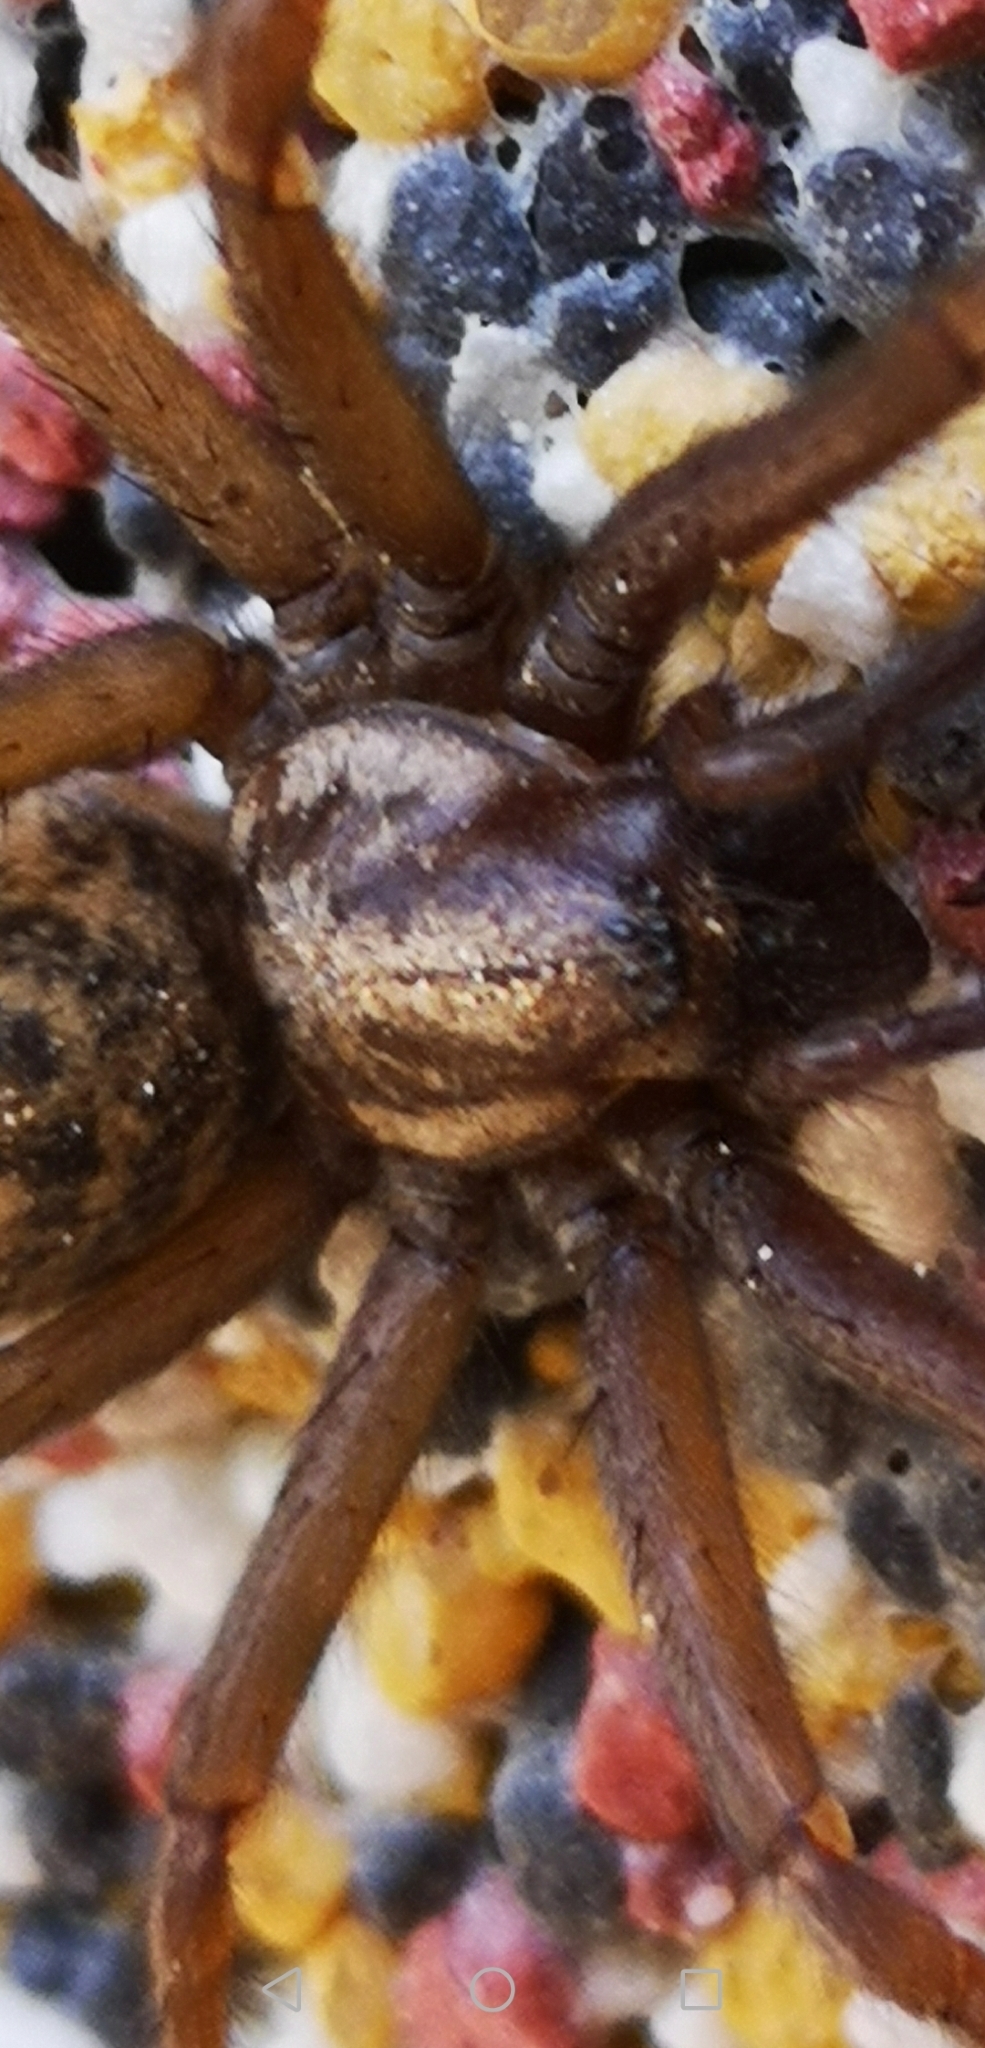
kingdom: Animalia
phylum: Arthropoda
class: Arachnida
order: Araneae
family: Agelenidae
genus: Eratigena
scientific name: Eratigena atrica
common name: Giant house spider
